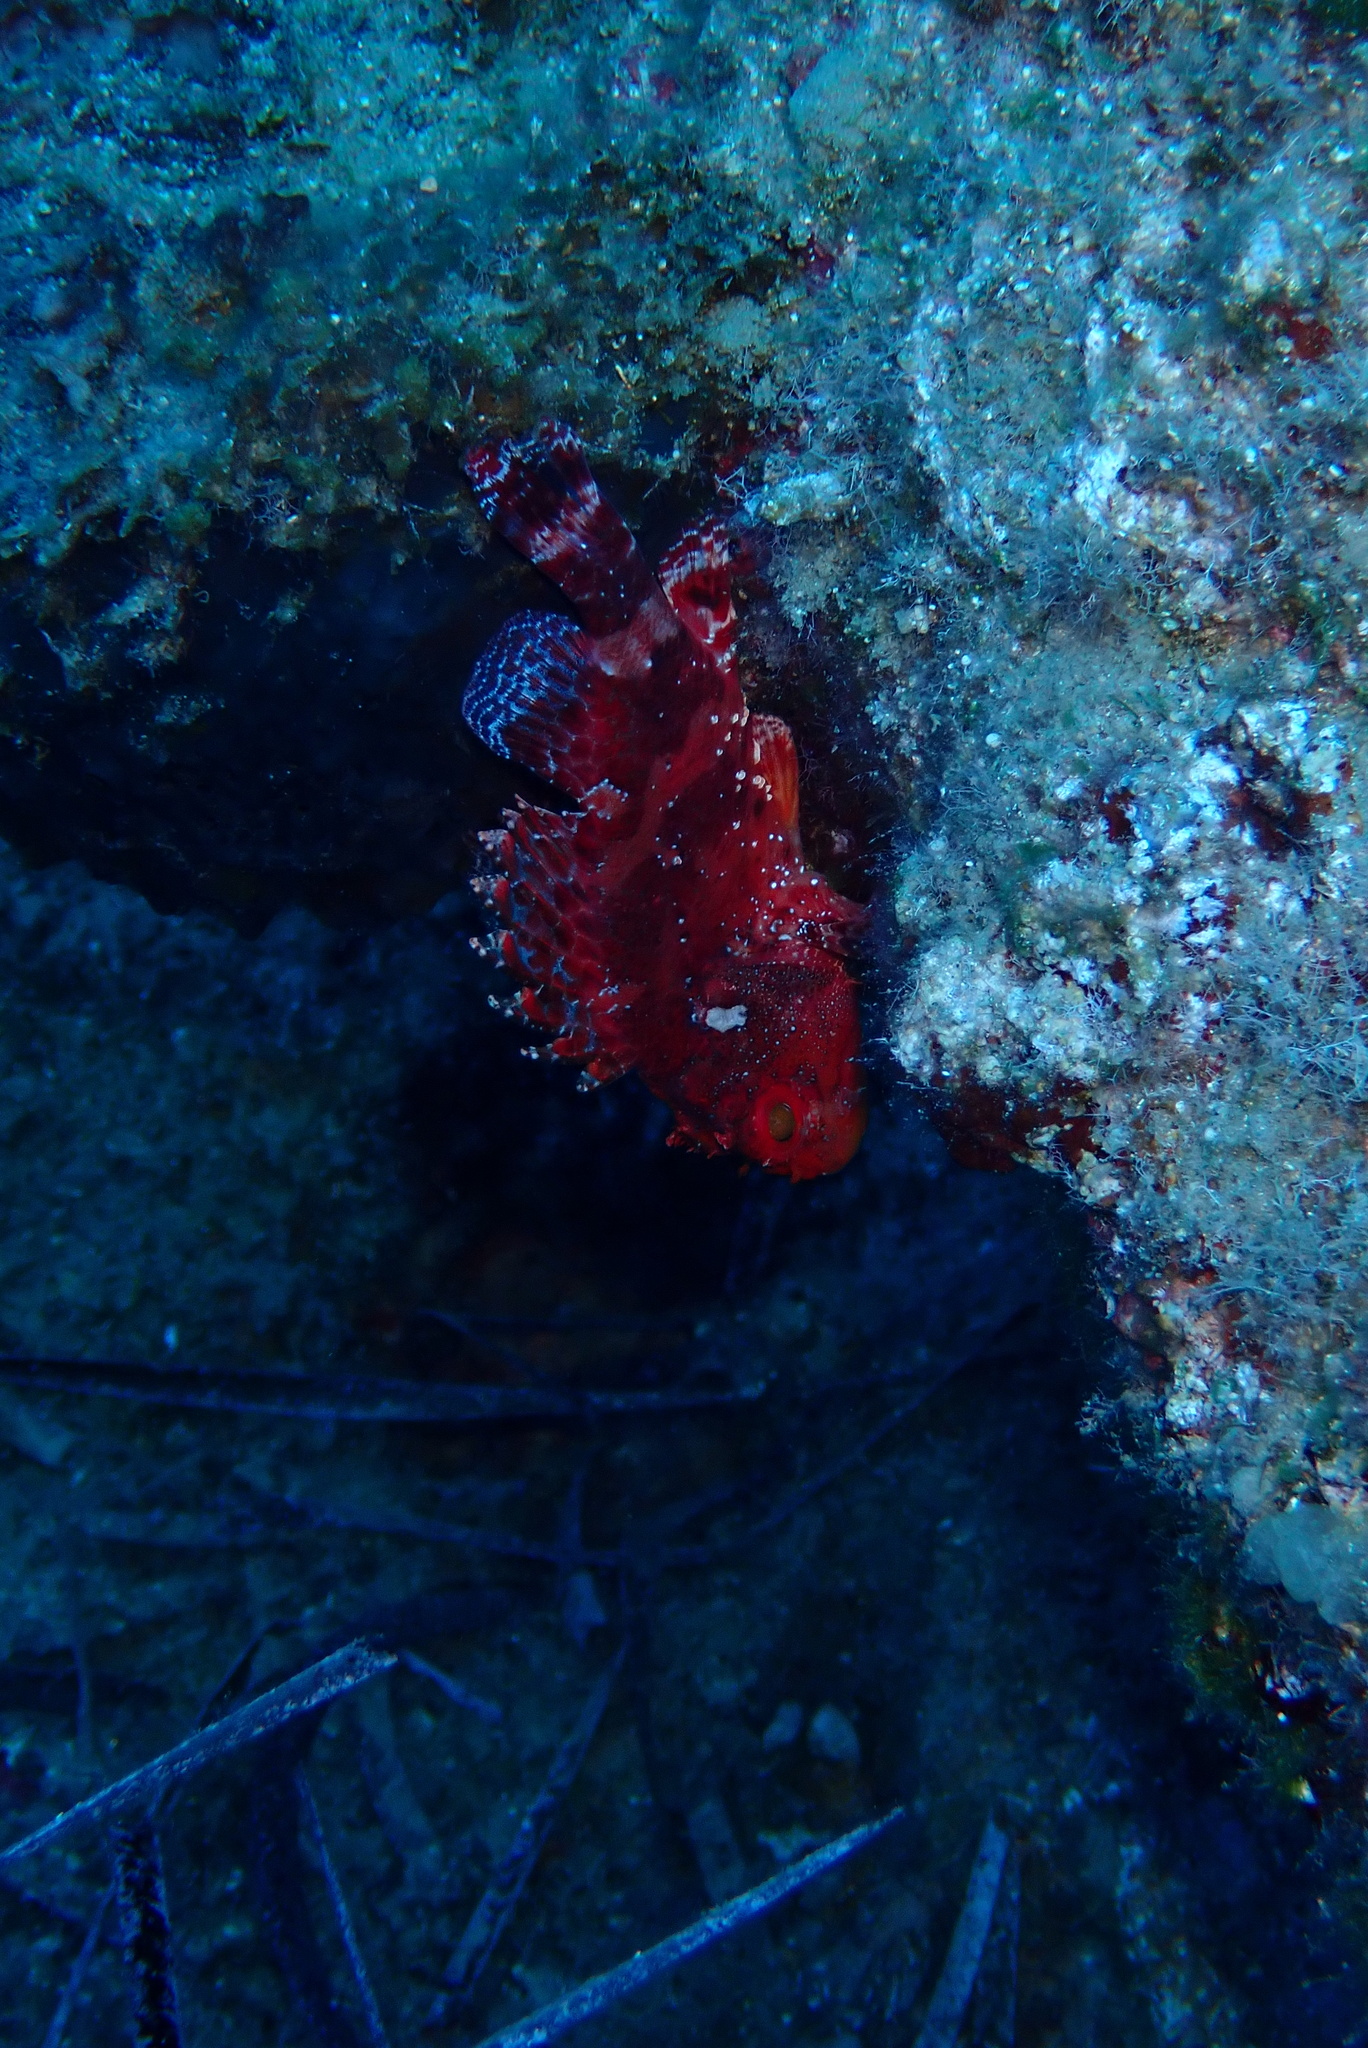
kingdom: Animalia
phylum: Chordata
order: Scorpaeniformes
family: Scorpaenidae
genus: Scorpaena
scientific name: Scorpaena maderensis
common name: Madeira rockfish
